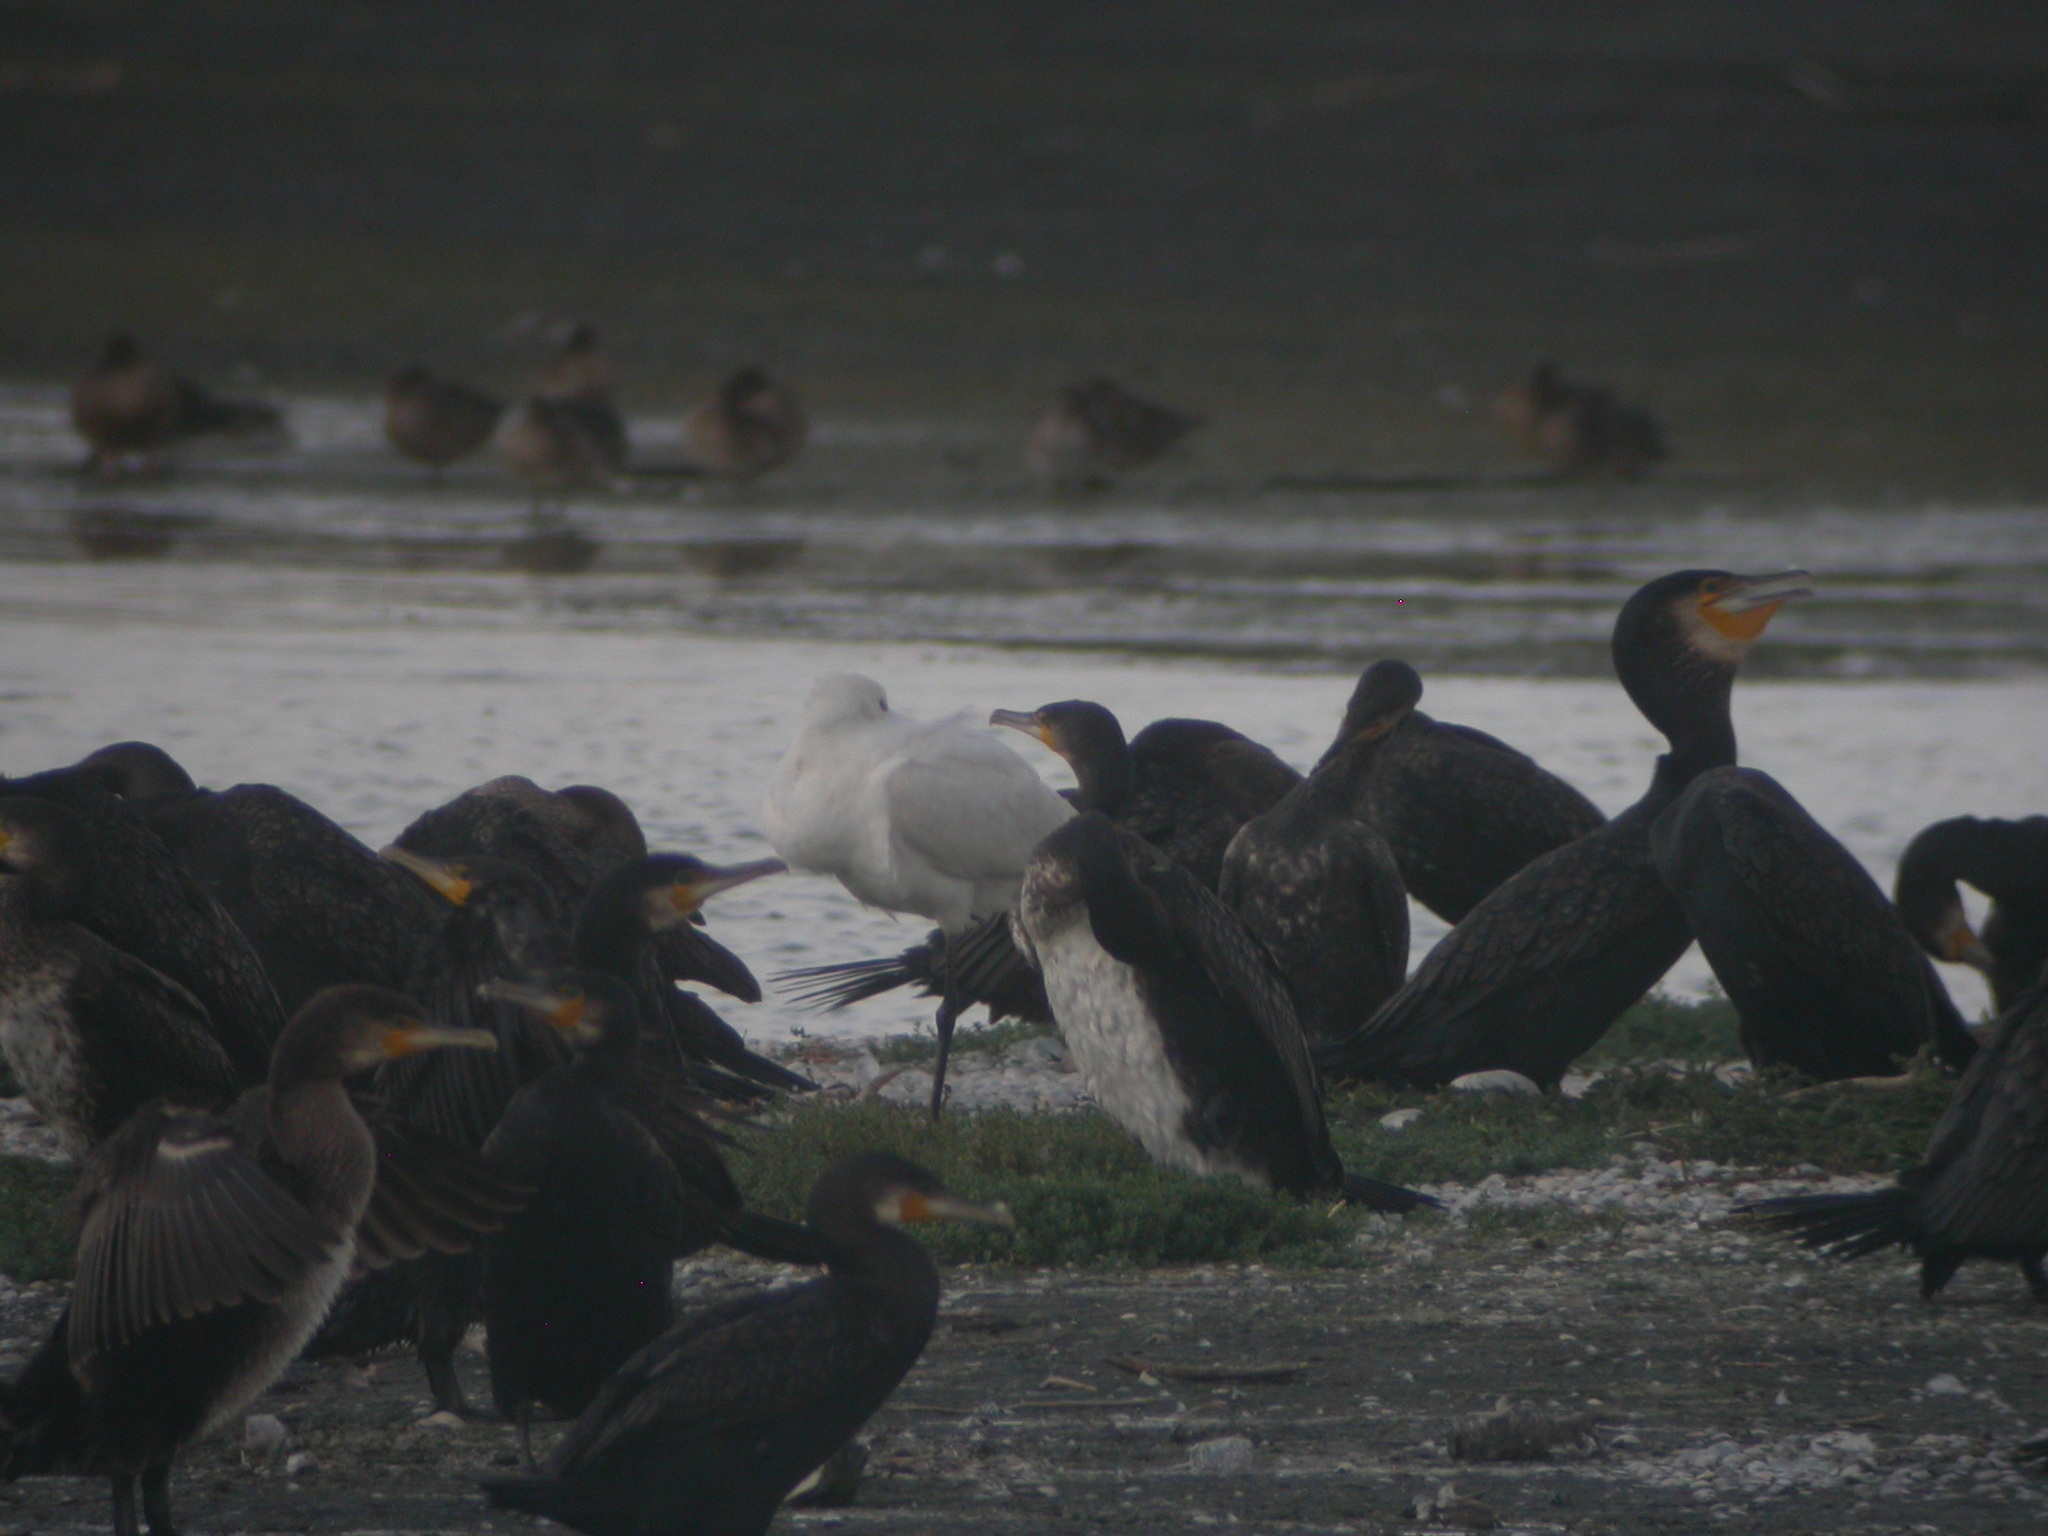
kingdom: Animalia
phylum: Chordata
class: Aves
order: Pelecaniformes
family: Threskiornithidae
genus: Platalea
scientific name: Platalea leucorodia
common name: Eurasian spoonbill
